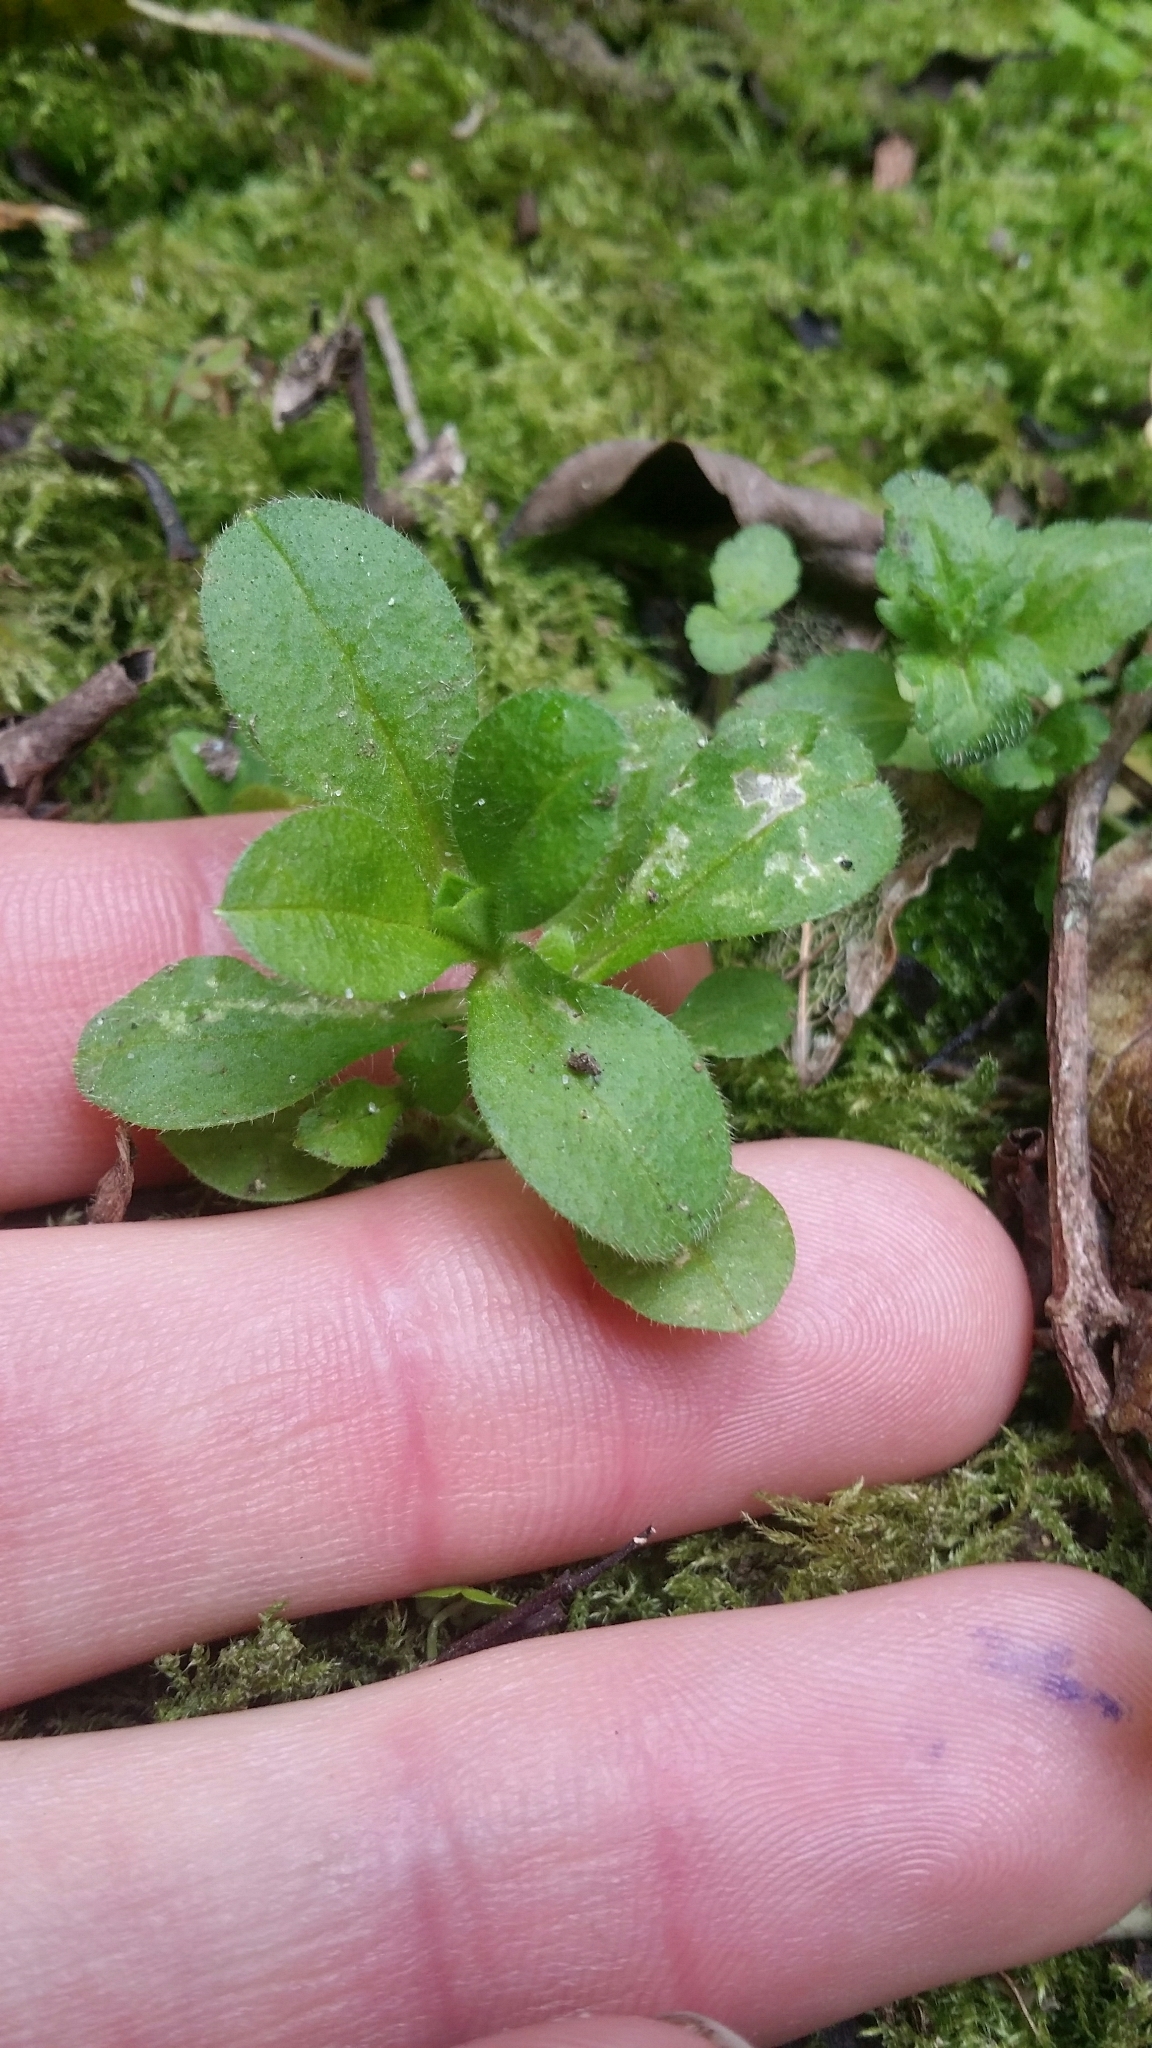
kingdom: Plantae
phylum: Tracheophyta
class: Magnoliopsida
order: Caryophyllales
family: Caryophyllaceae
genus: Cerastium
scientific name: Cerastium glomeratum
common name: Sticky chickweed
